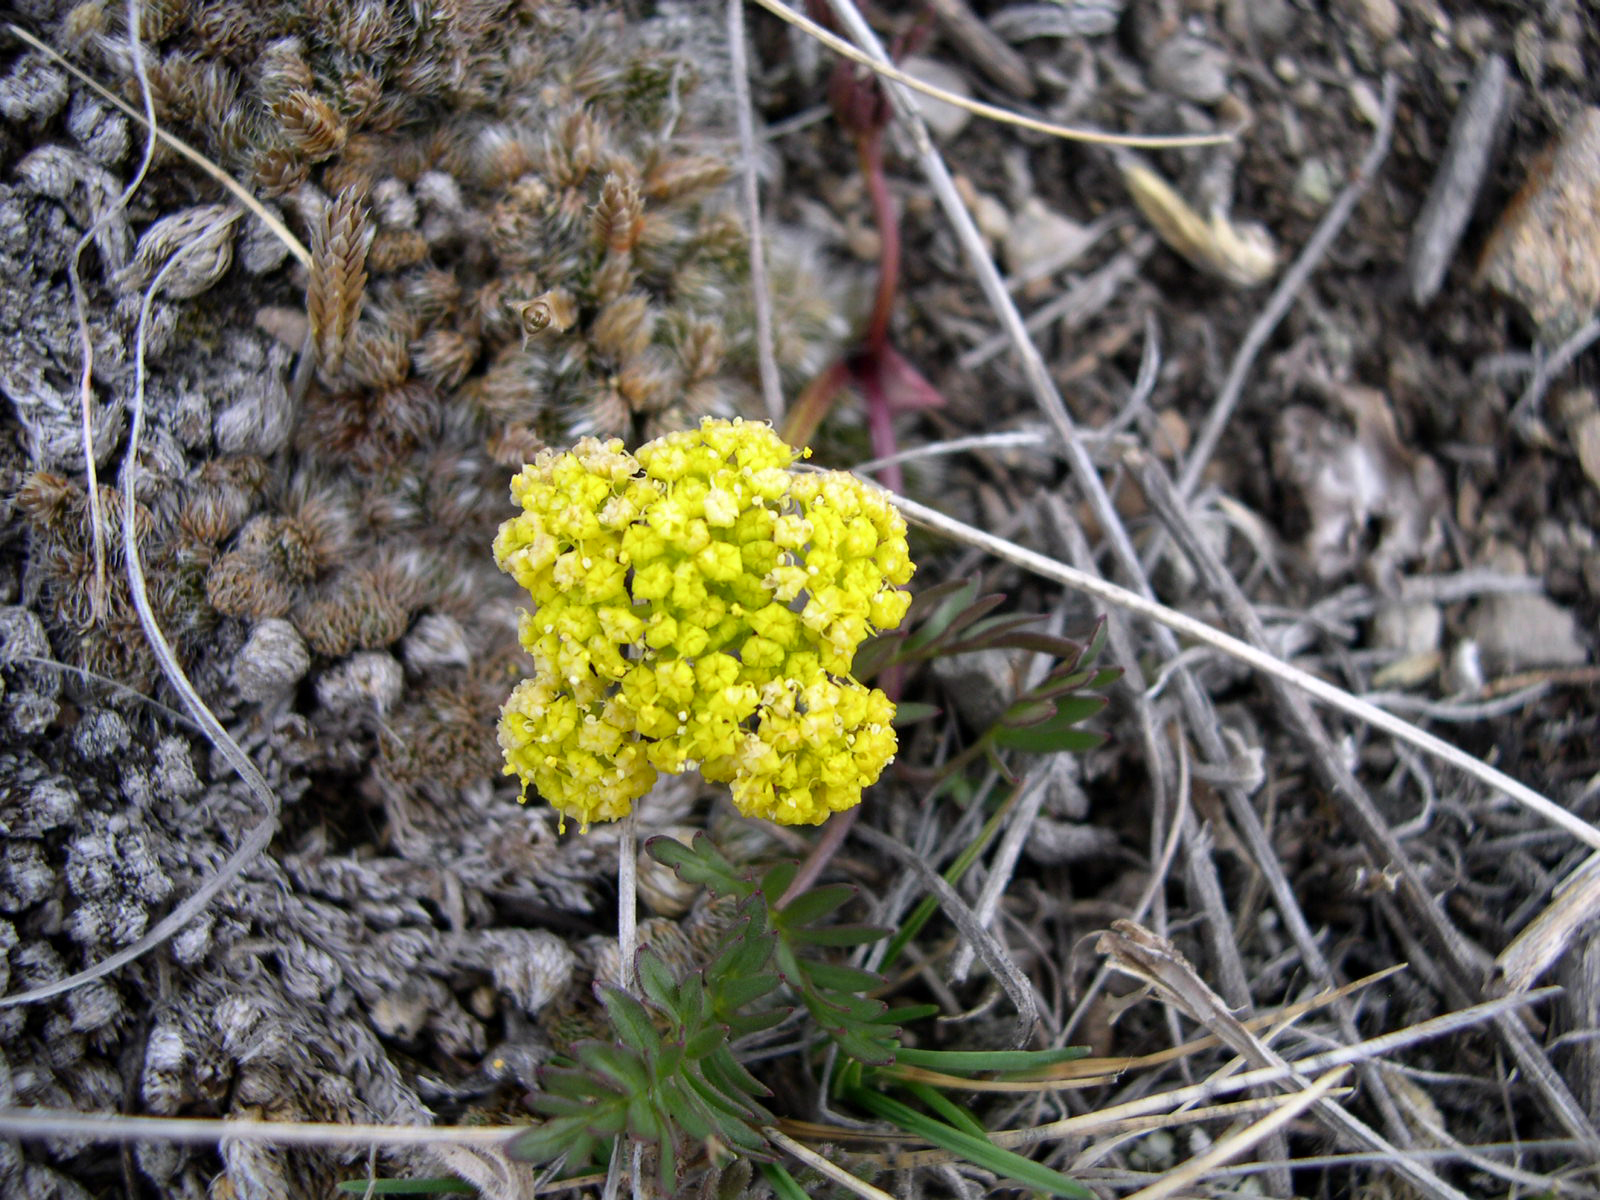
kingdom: Plantae
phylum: Tracheophyta
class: Magnoliopsida
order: Apiales
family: Apiaceae
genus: Lomatium
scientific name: Lomatium cous
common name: Biscuit-root
